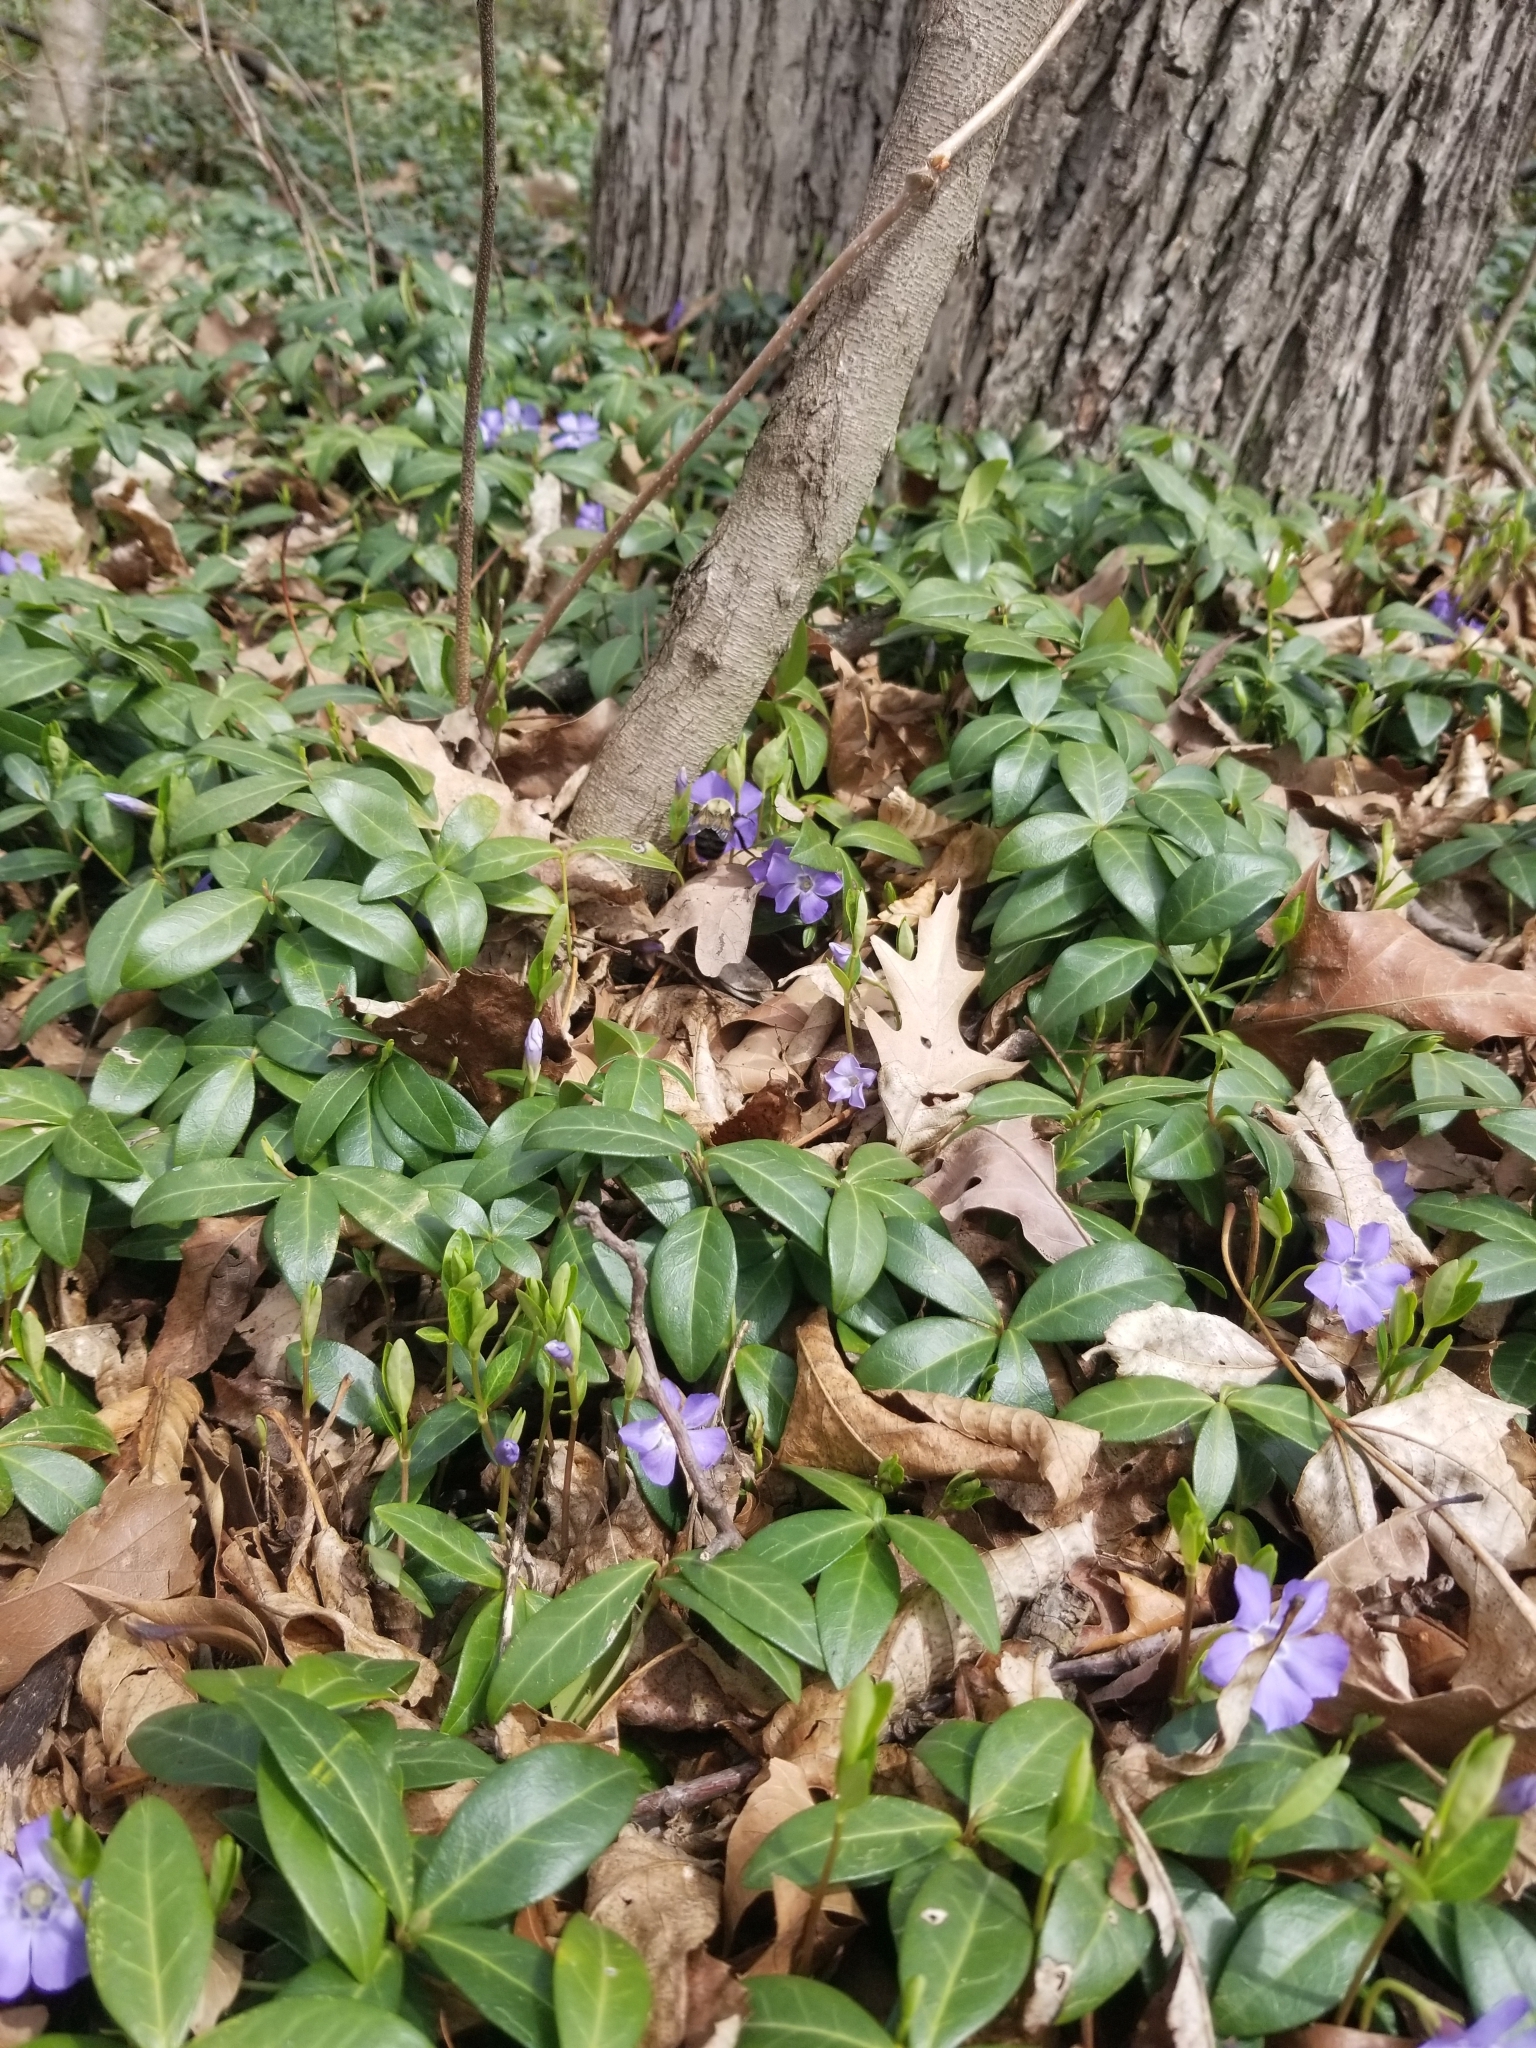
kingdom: Animalia
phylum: Arthropoda
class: Insecta
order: Hymenoptera
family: Apidae
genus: Bombus
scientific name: Bombus impatiens
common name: Common eastern bumble bee
